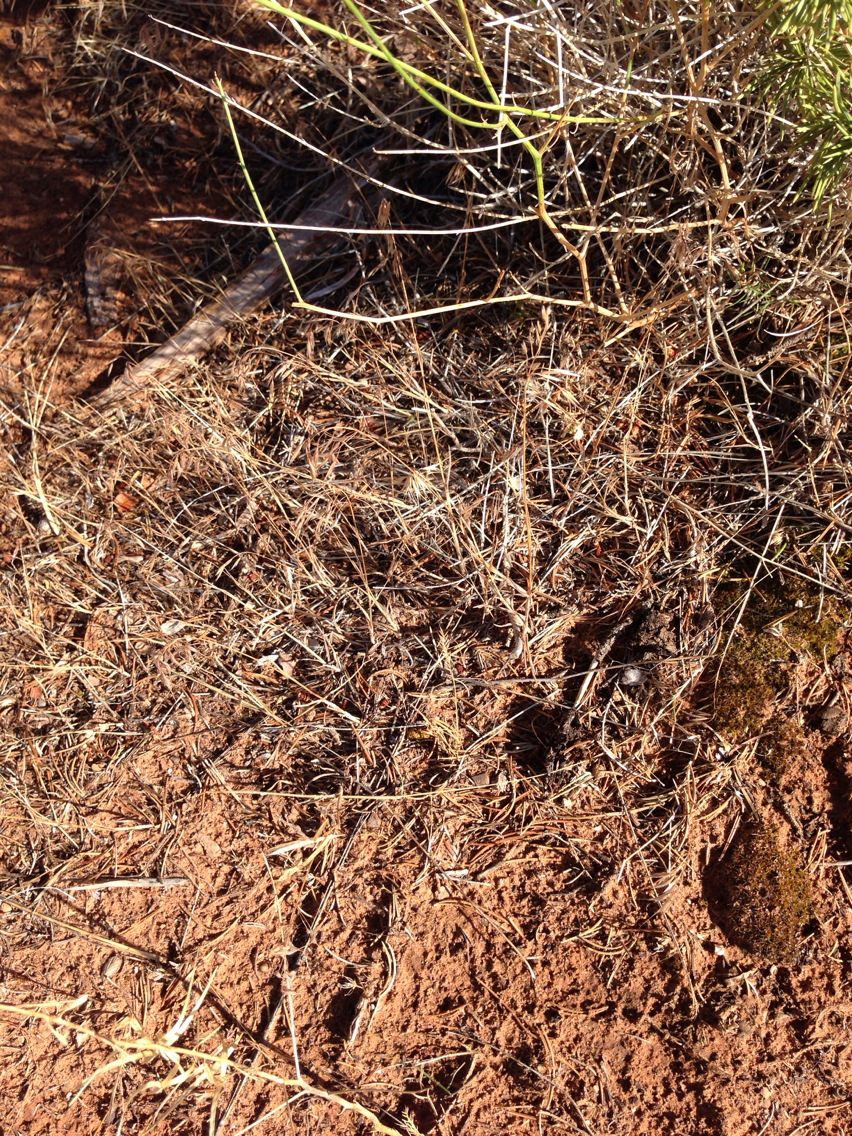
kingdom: Plantae
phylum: Tracheophyta
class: Liliopsida
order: Poales
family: Poaceae
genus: Bromus
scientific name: Bromus tectorum
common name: Cheatgrass
